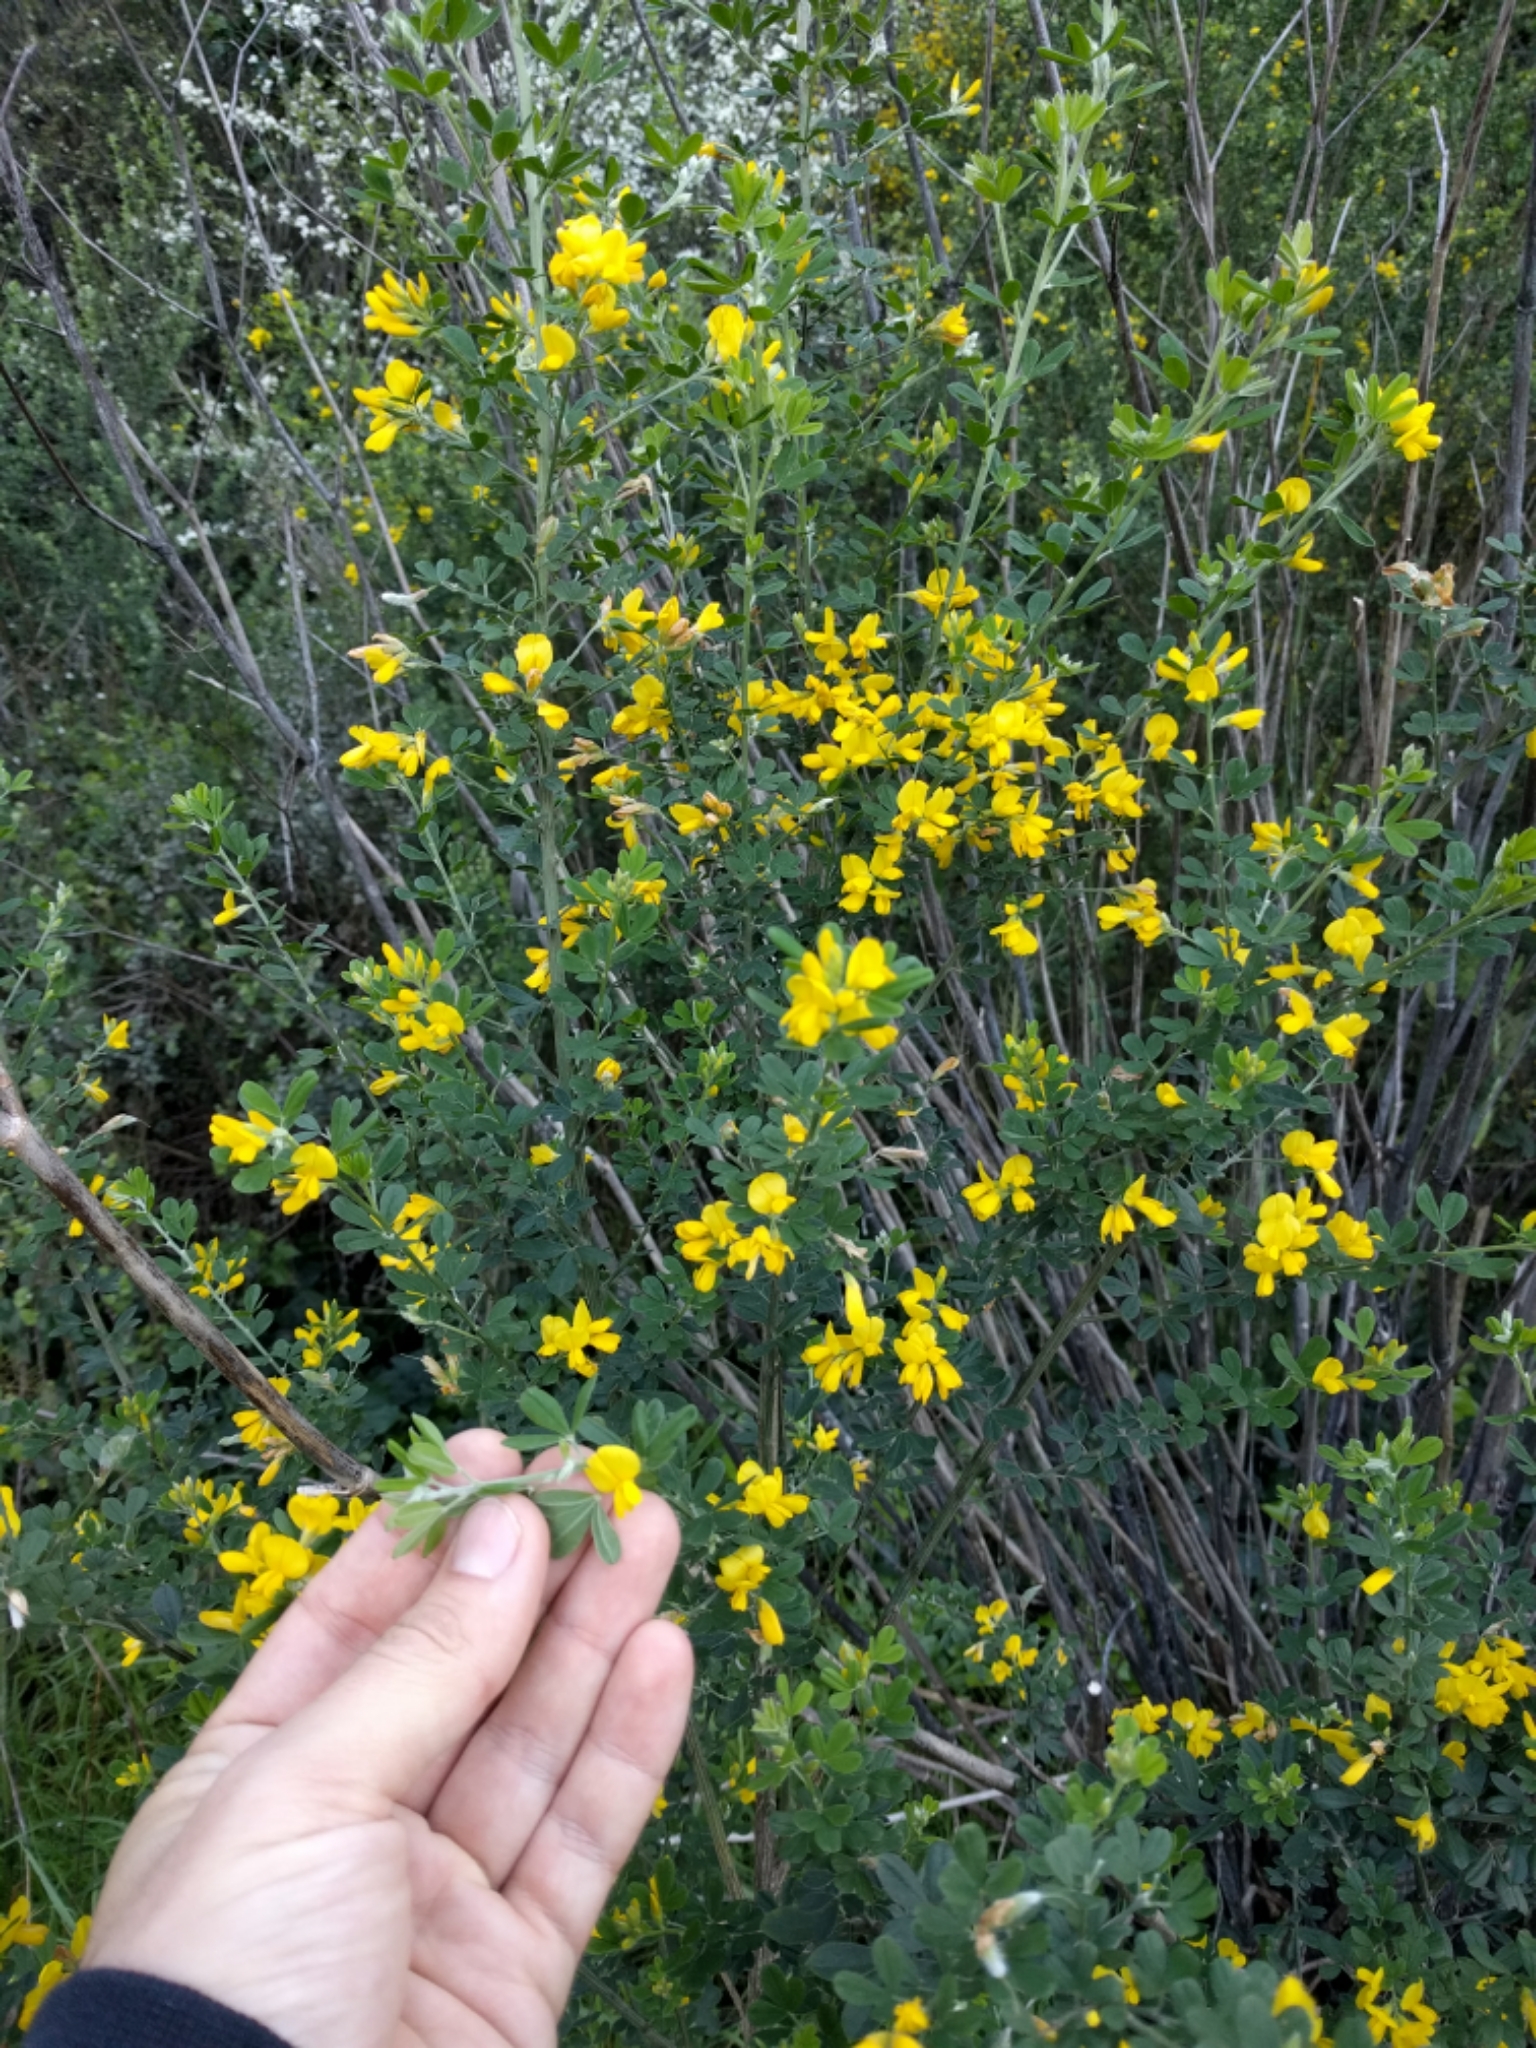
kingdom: Plantae
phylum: Tracheophyta
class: Magnoliopsida
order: Fabales
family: Fabaceae
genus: Genista
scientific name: Genista monspessulana
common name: Montpellier broom
